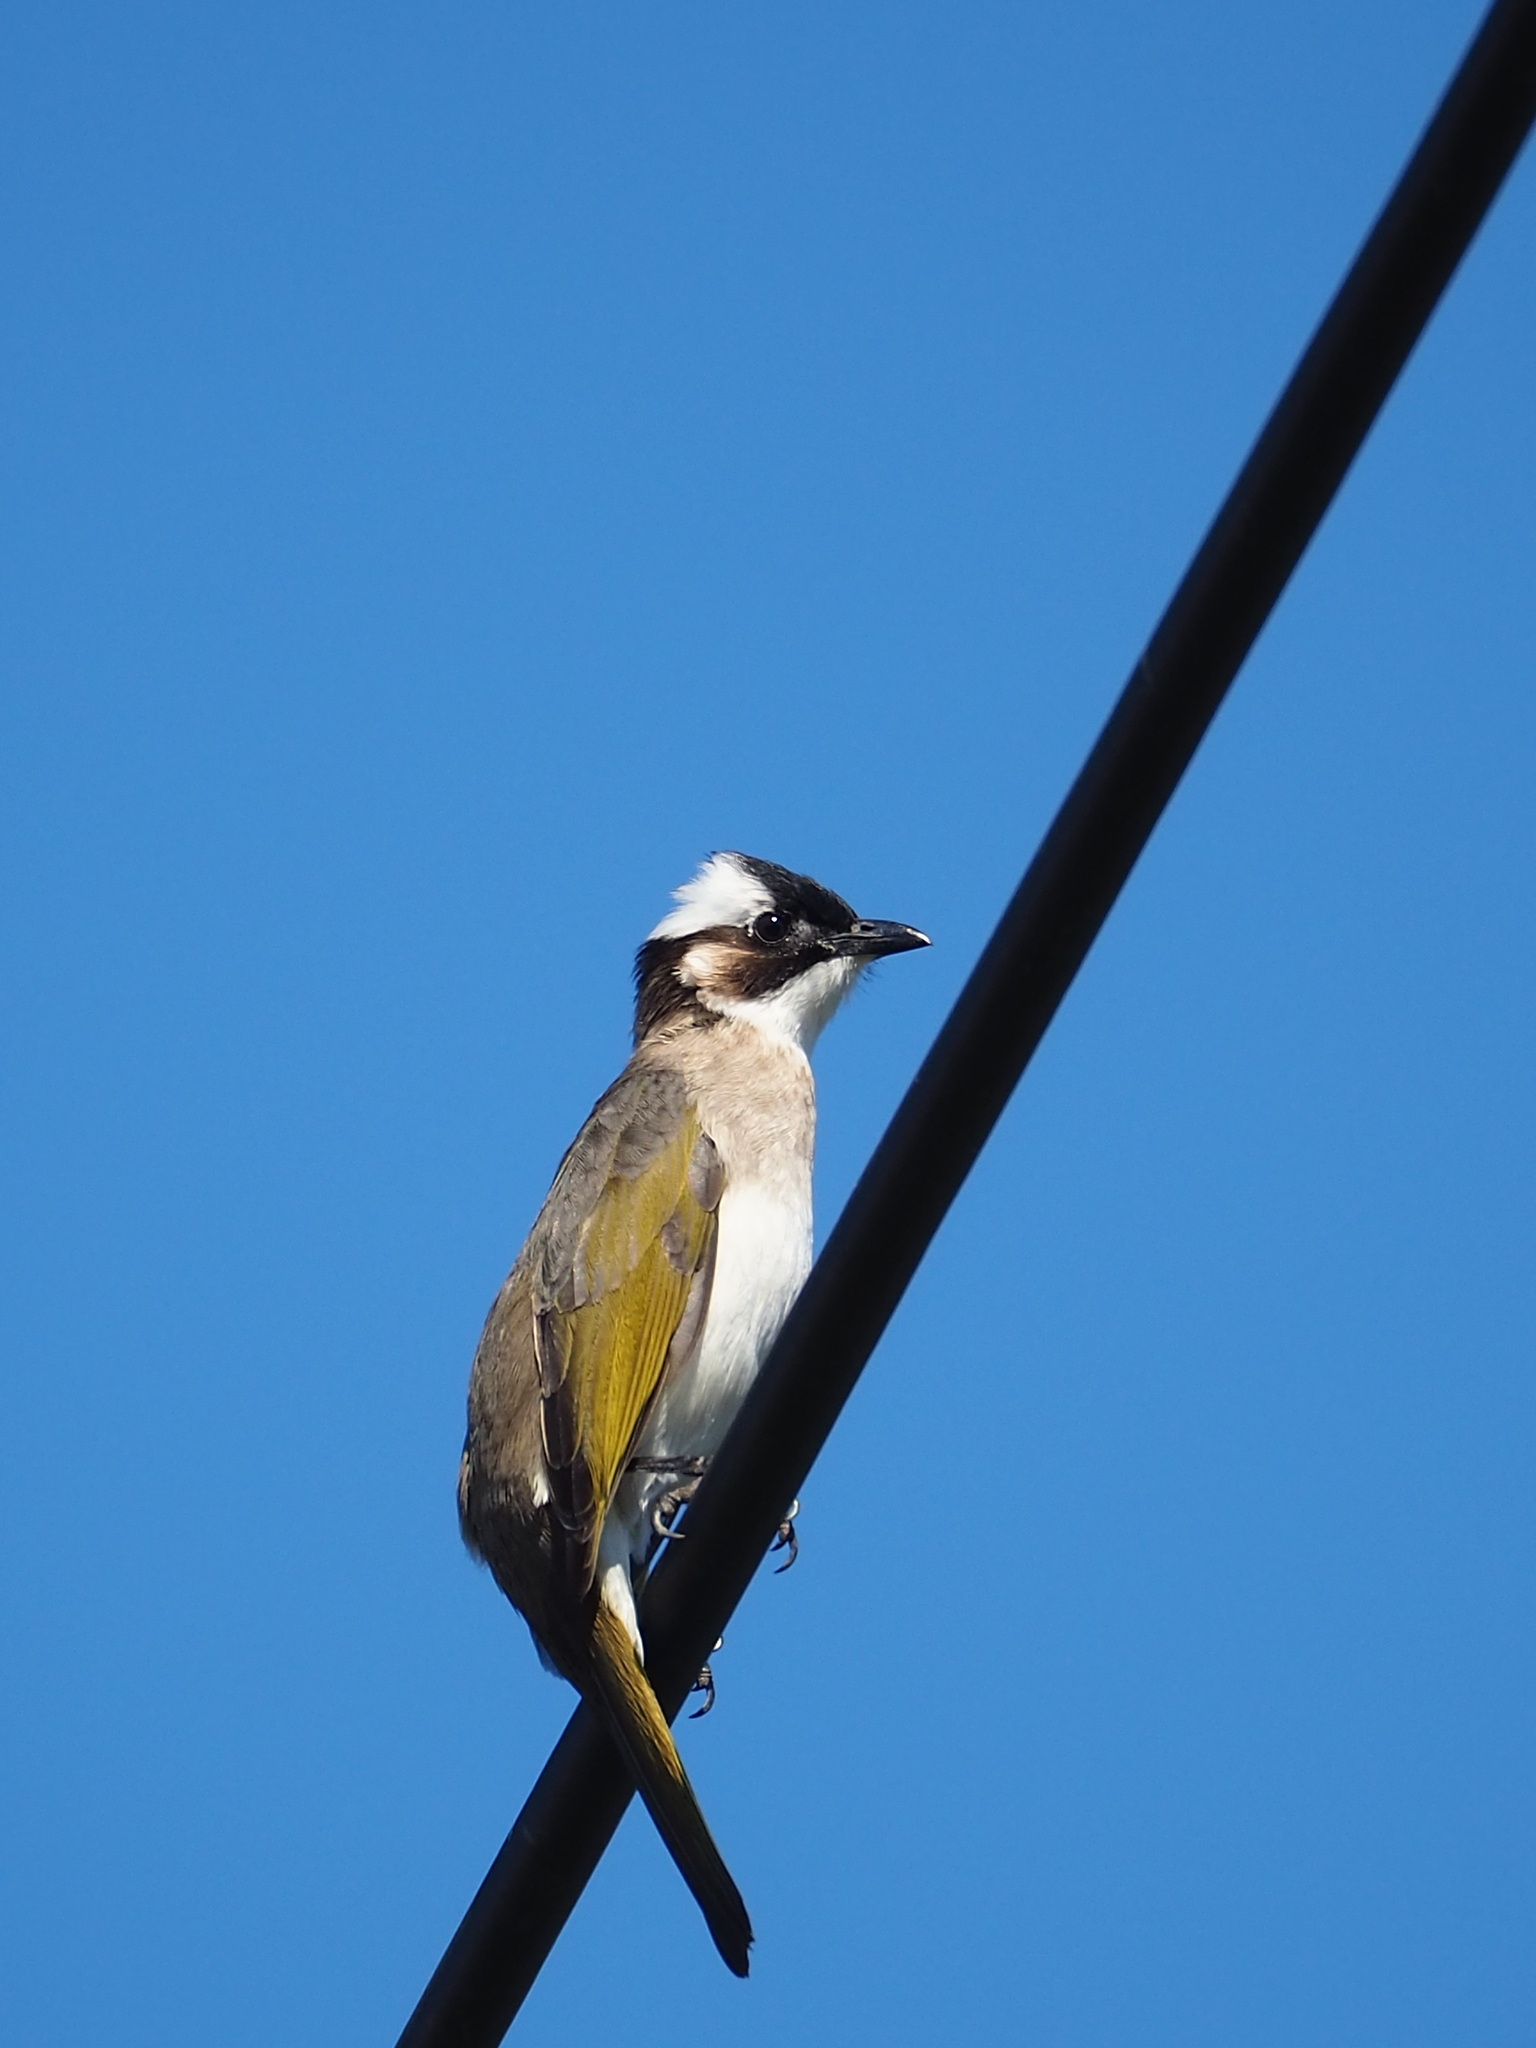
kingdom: Animalia
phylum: Chordata
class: Aves
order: Passeriformes
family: Pycnonotidae
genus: Pycnonotus
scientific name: Pycnonotus sinensis
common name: Light-vented bulbul
